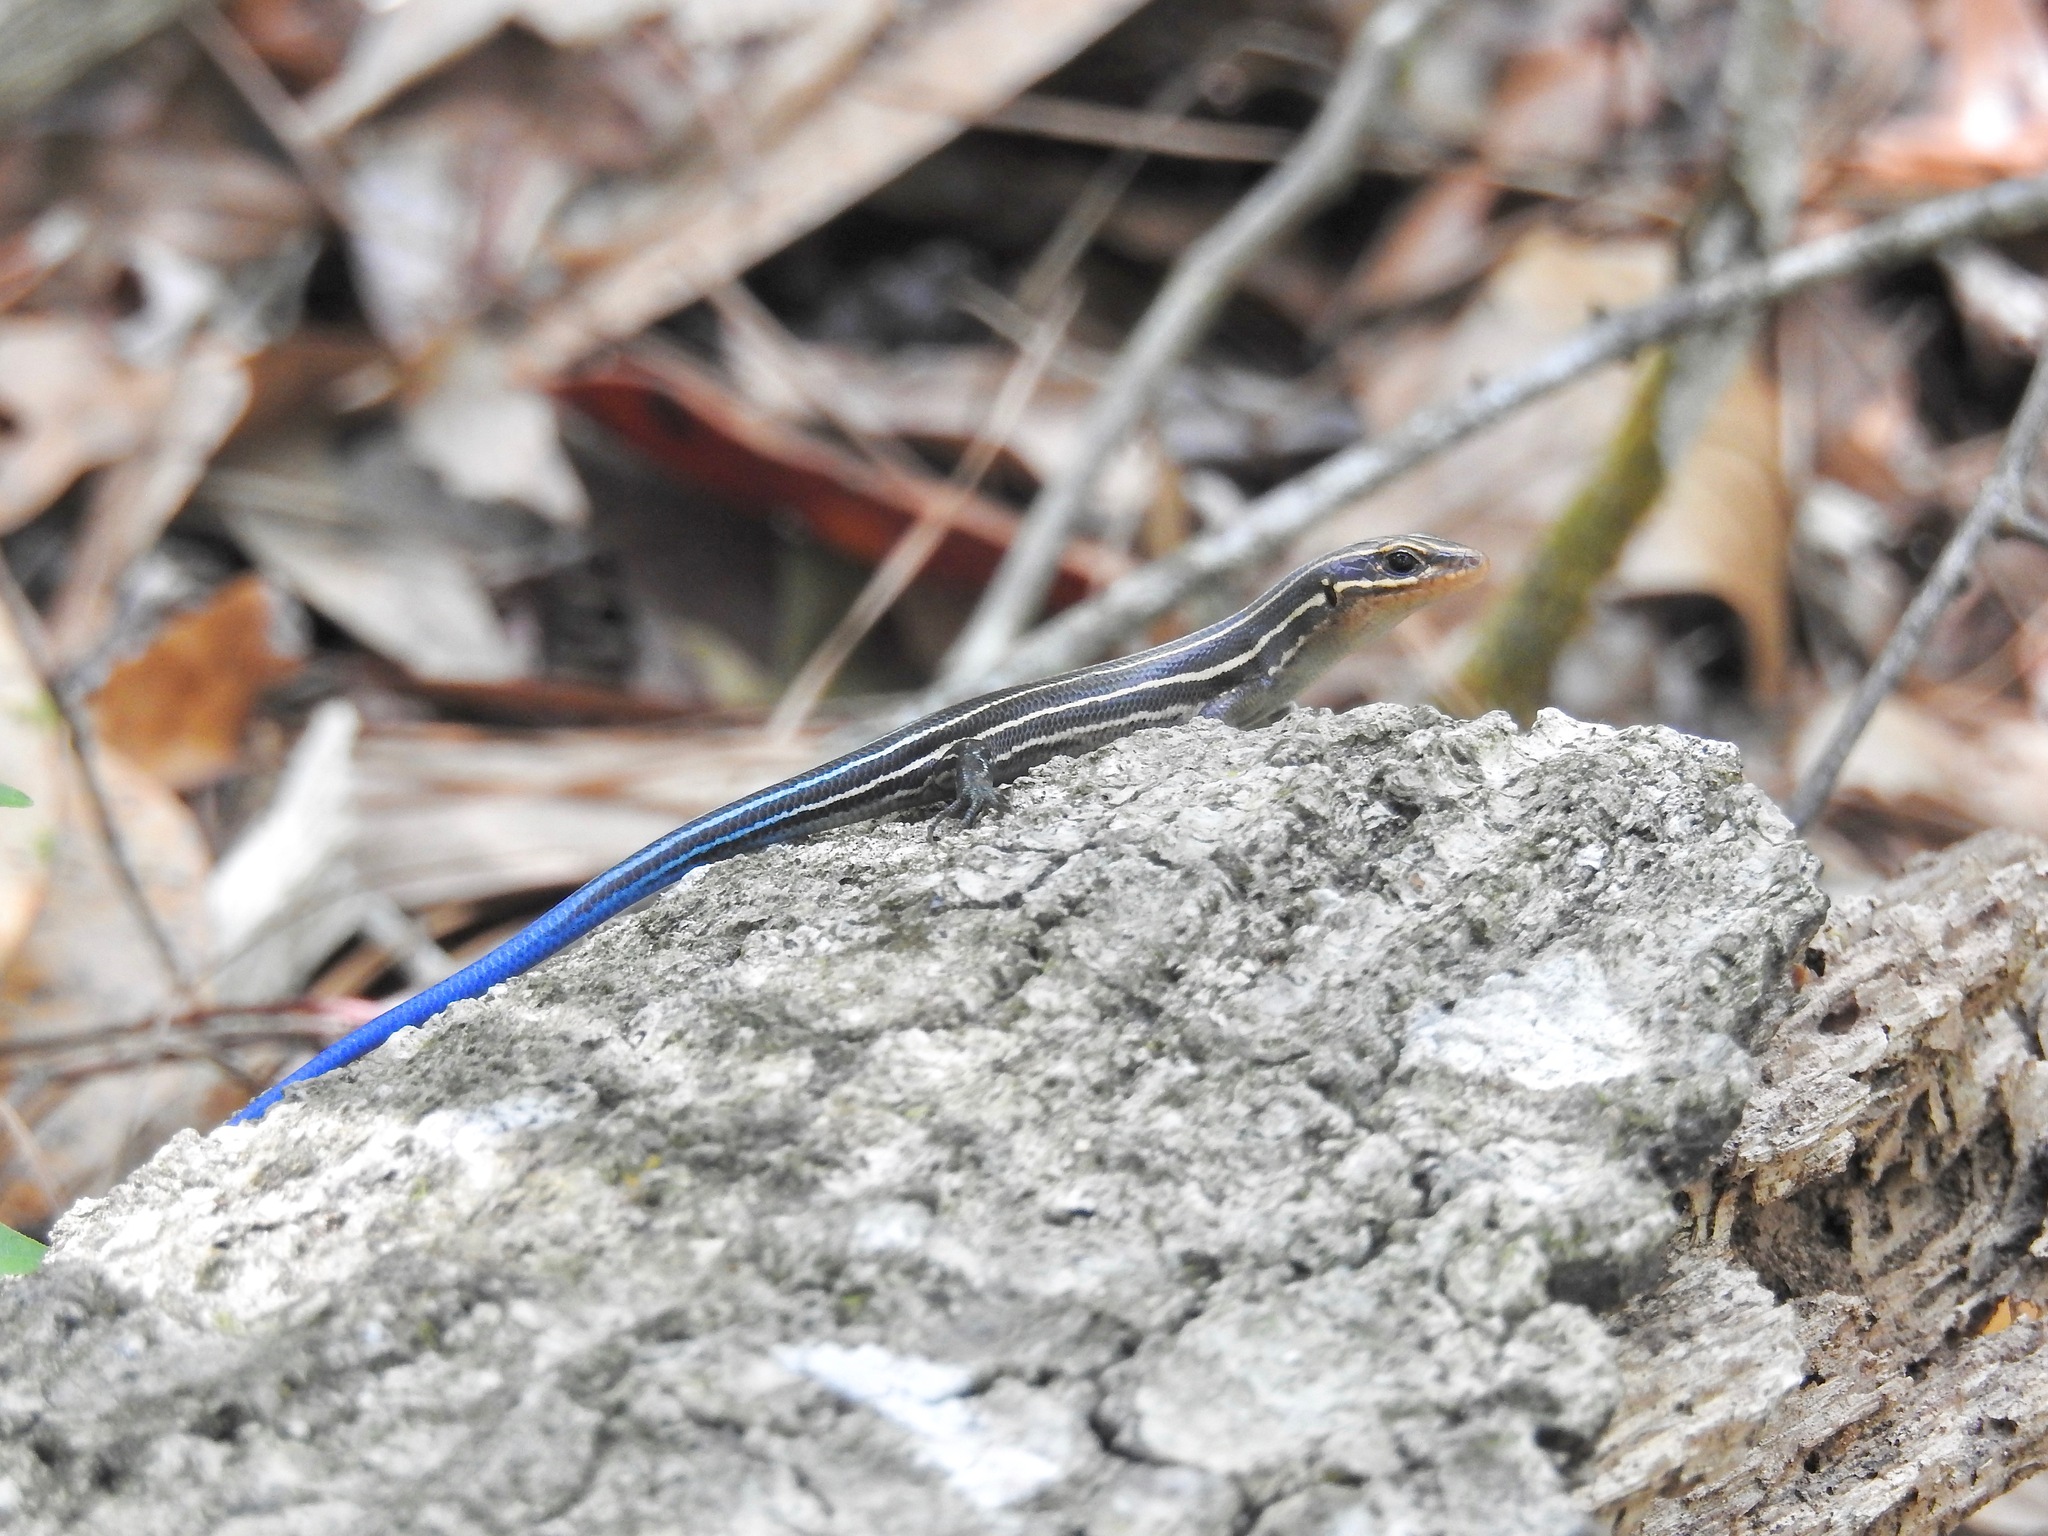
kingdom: Animalia
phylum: Chordata
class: Squamata
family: Scincidae
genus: Plestiodon
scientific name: Plestiodon laticeps
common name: Broadhead skink
